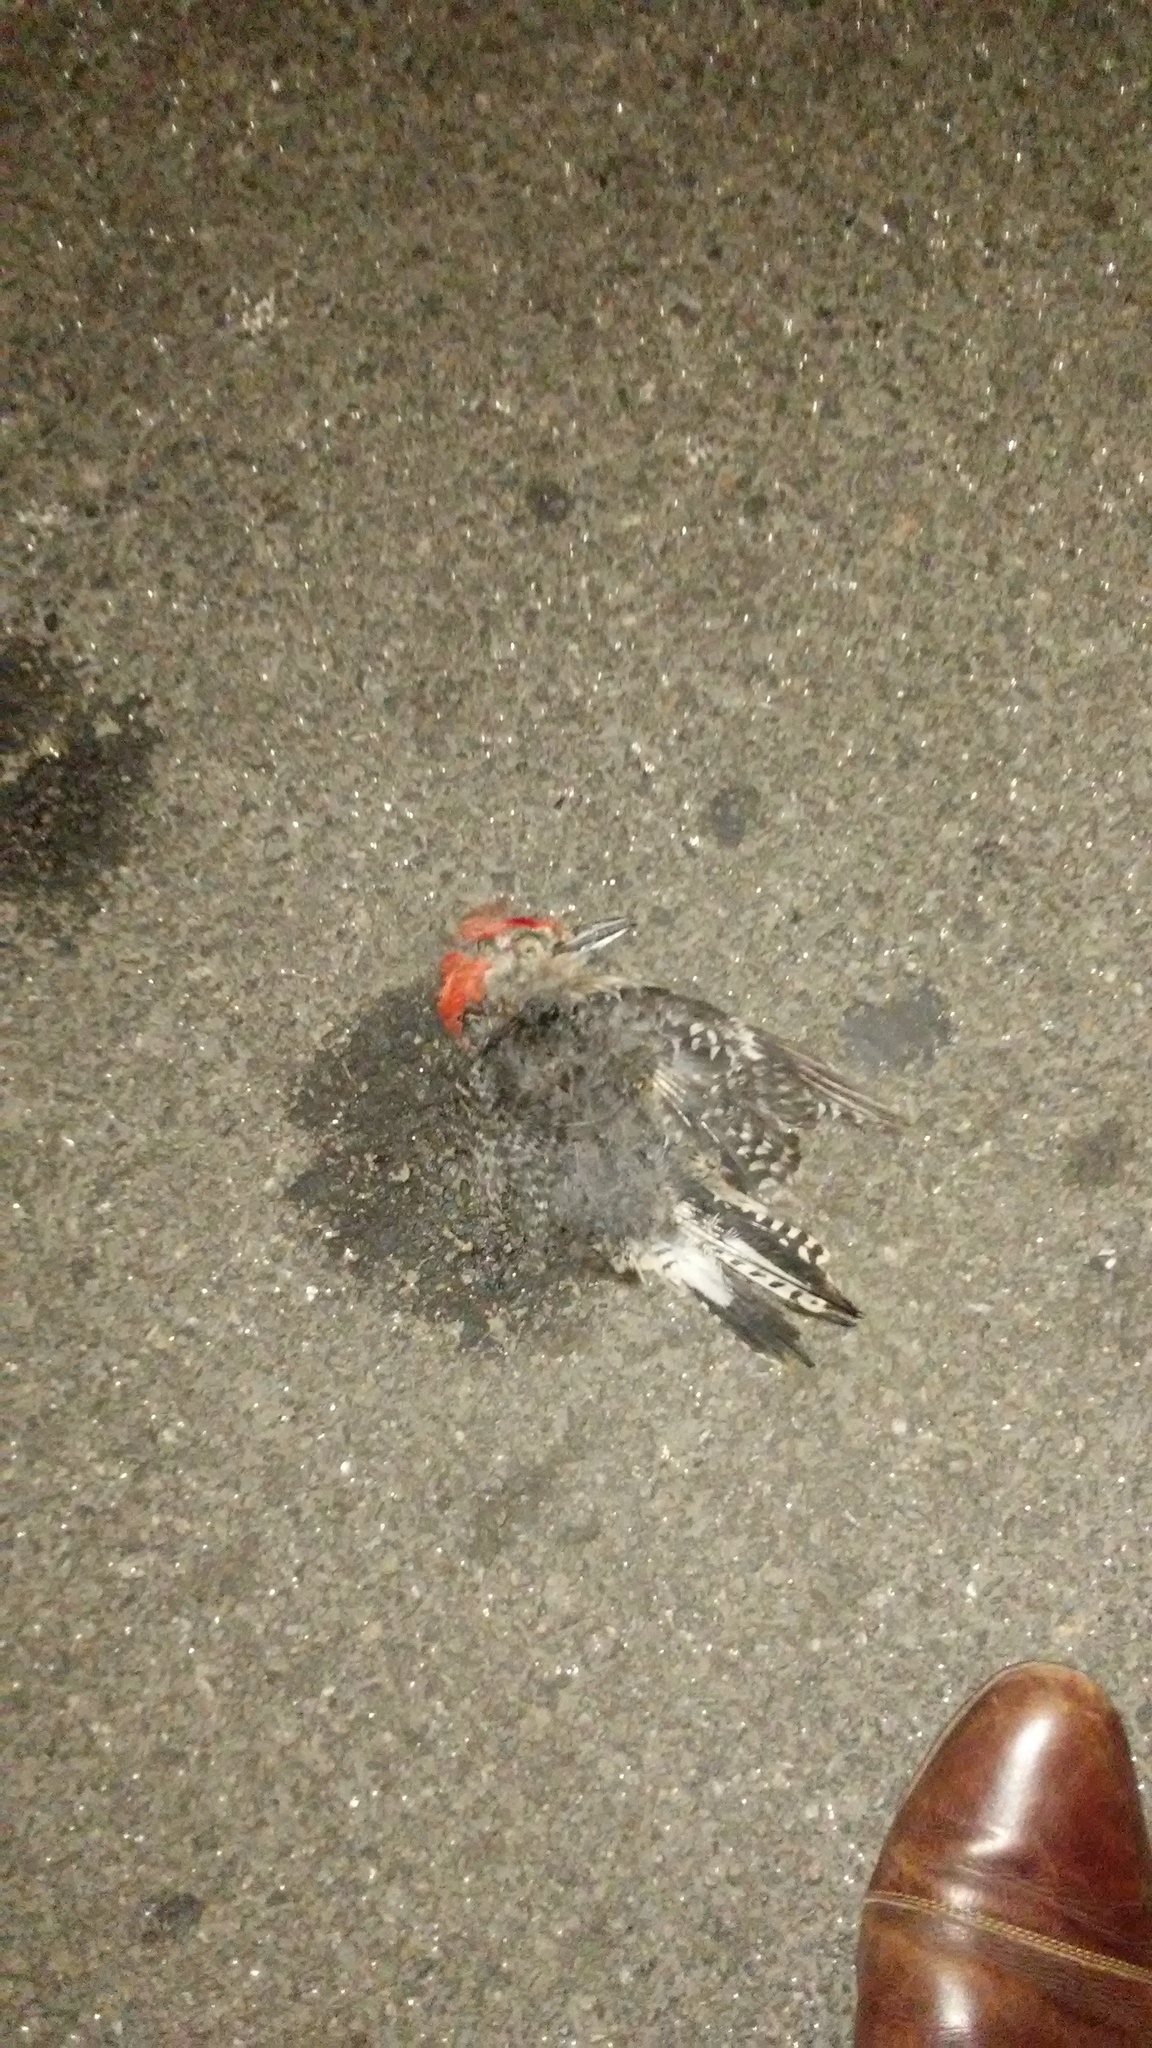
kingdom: Animalia
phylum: Chordata
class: Aves
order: Piciformes
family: Picidae
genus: Melanerpes
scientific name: Melanerpes carolinus
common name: Red-bellied woodpecker
